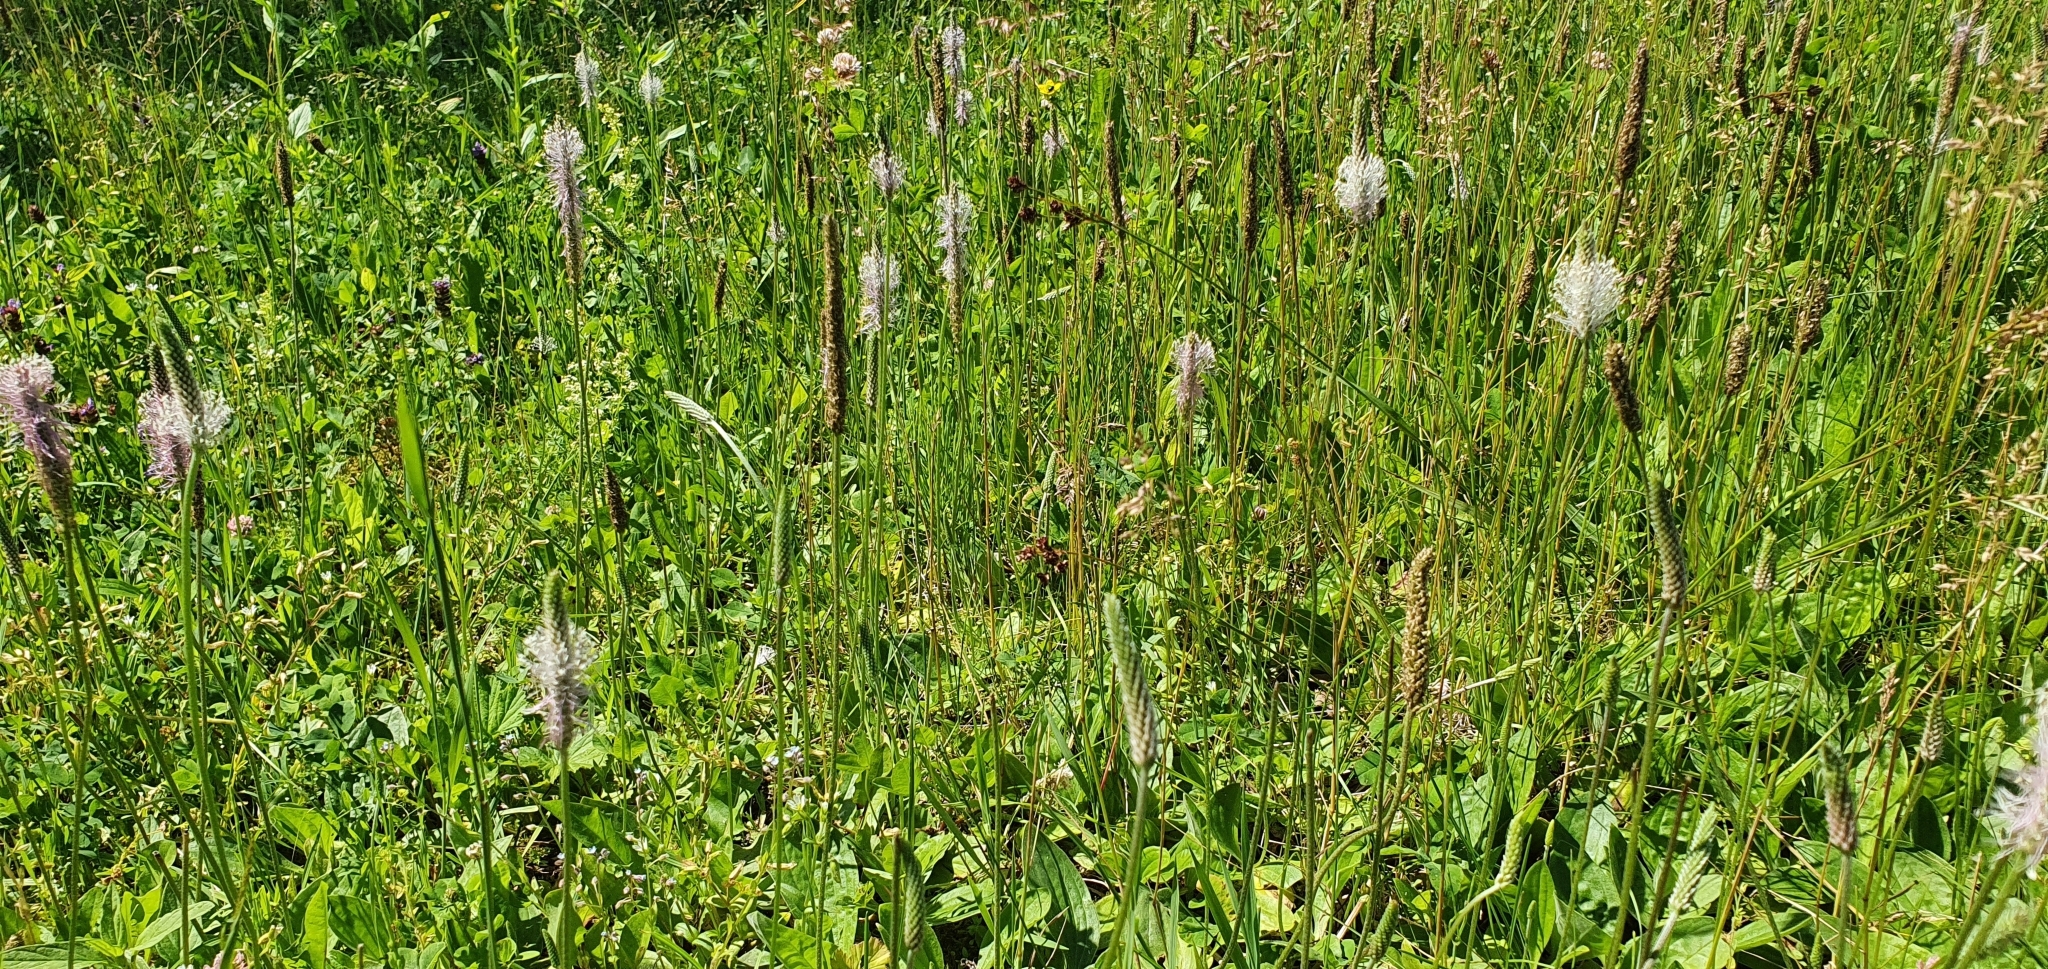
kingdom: Plantae
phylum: Tracheophyta
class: Magnoliopsida
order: Lamiales
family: Plantaginaceae
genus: Plantago
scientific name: Plantago media
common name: Hoary plantain
